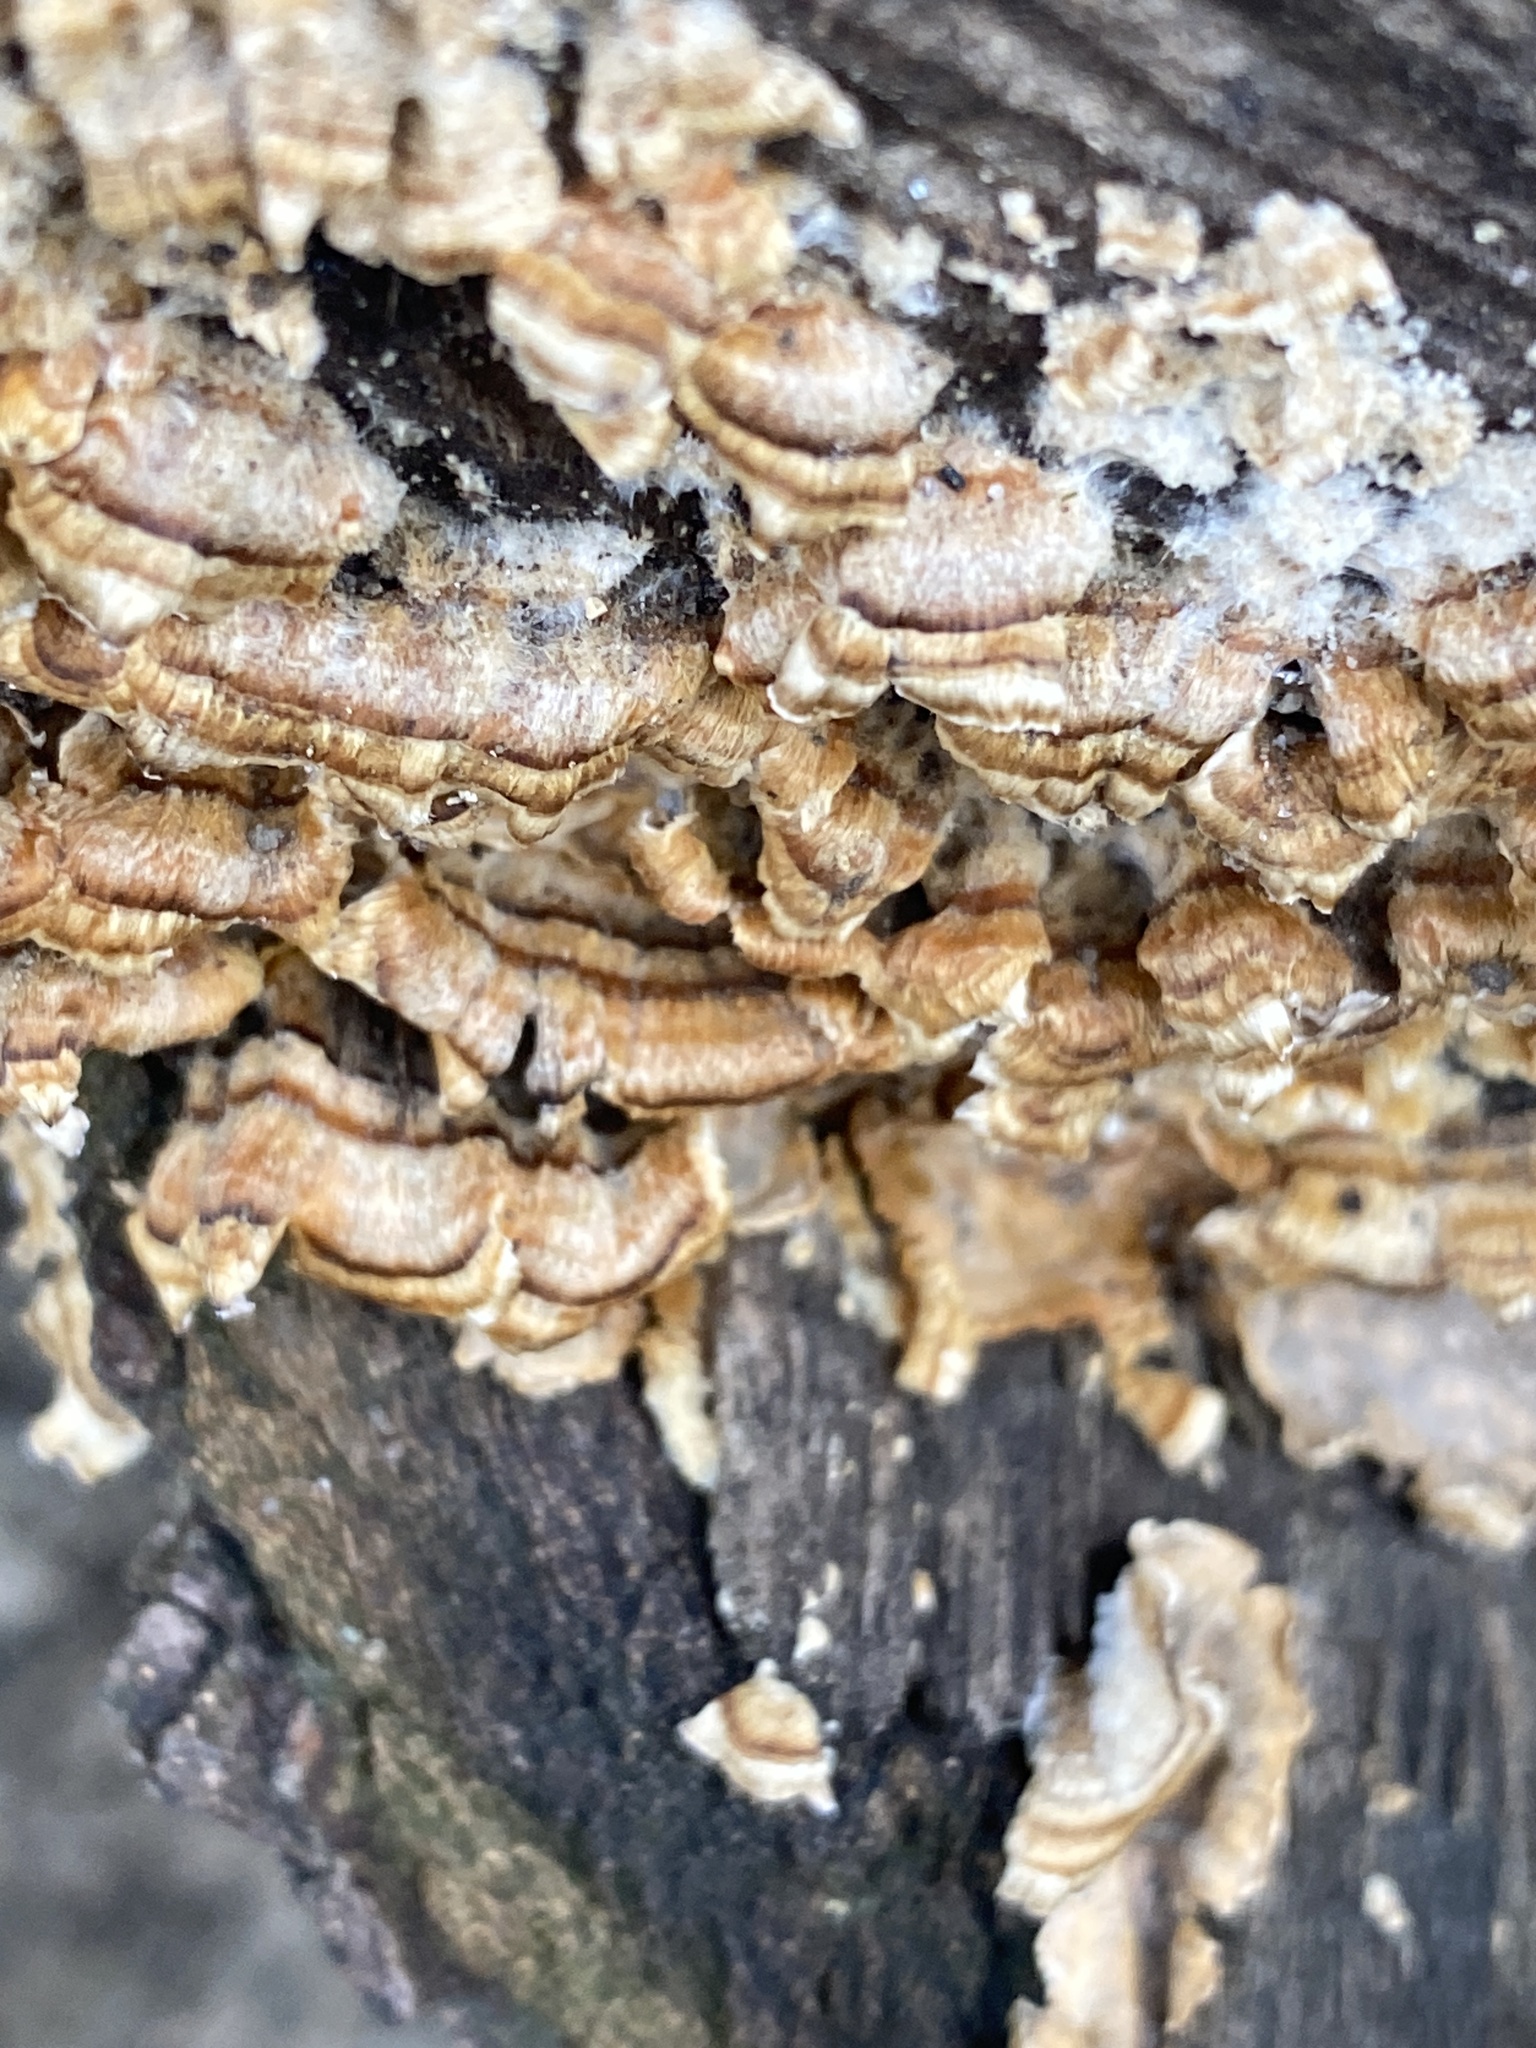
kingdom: Fungi
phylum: Basidiomycota
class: Agaricomycetes
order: Russulales
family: Stereaceae
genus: Stereum
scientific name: Stereum complicatum
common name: Crowded parchment
